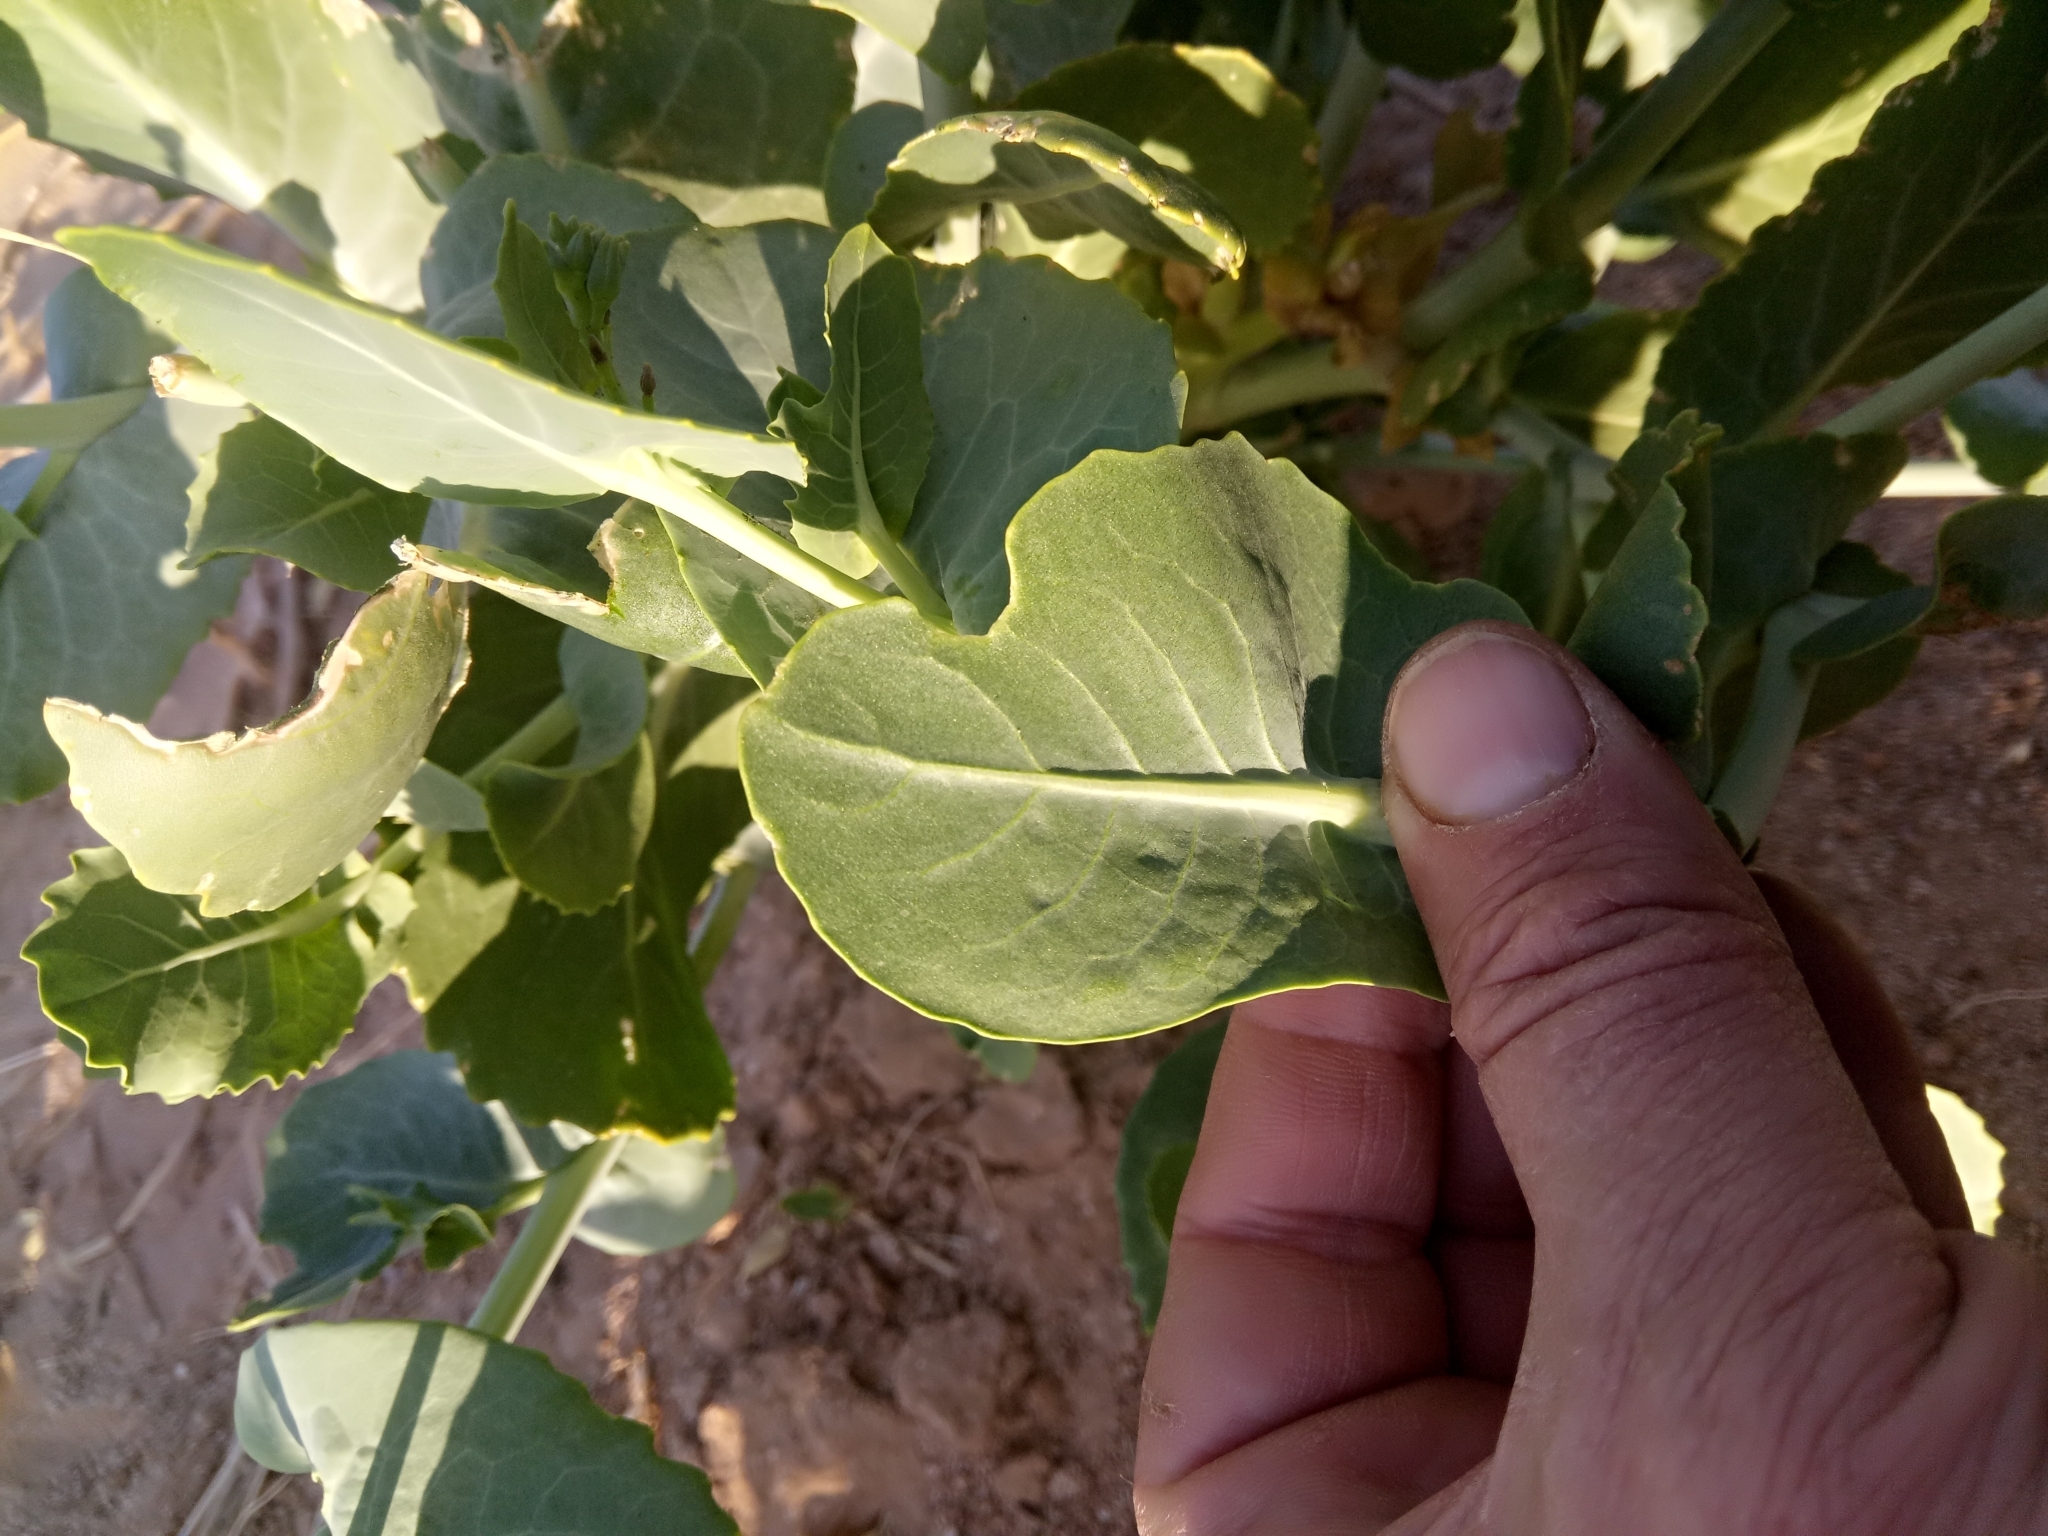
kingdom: Plantae
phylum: Tracheophyta
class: Magnoliopsida
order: Brassicales
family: Brassicaceae
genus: Schouwia
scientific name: Schouwia purpurea
